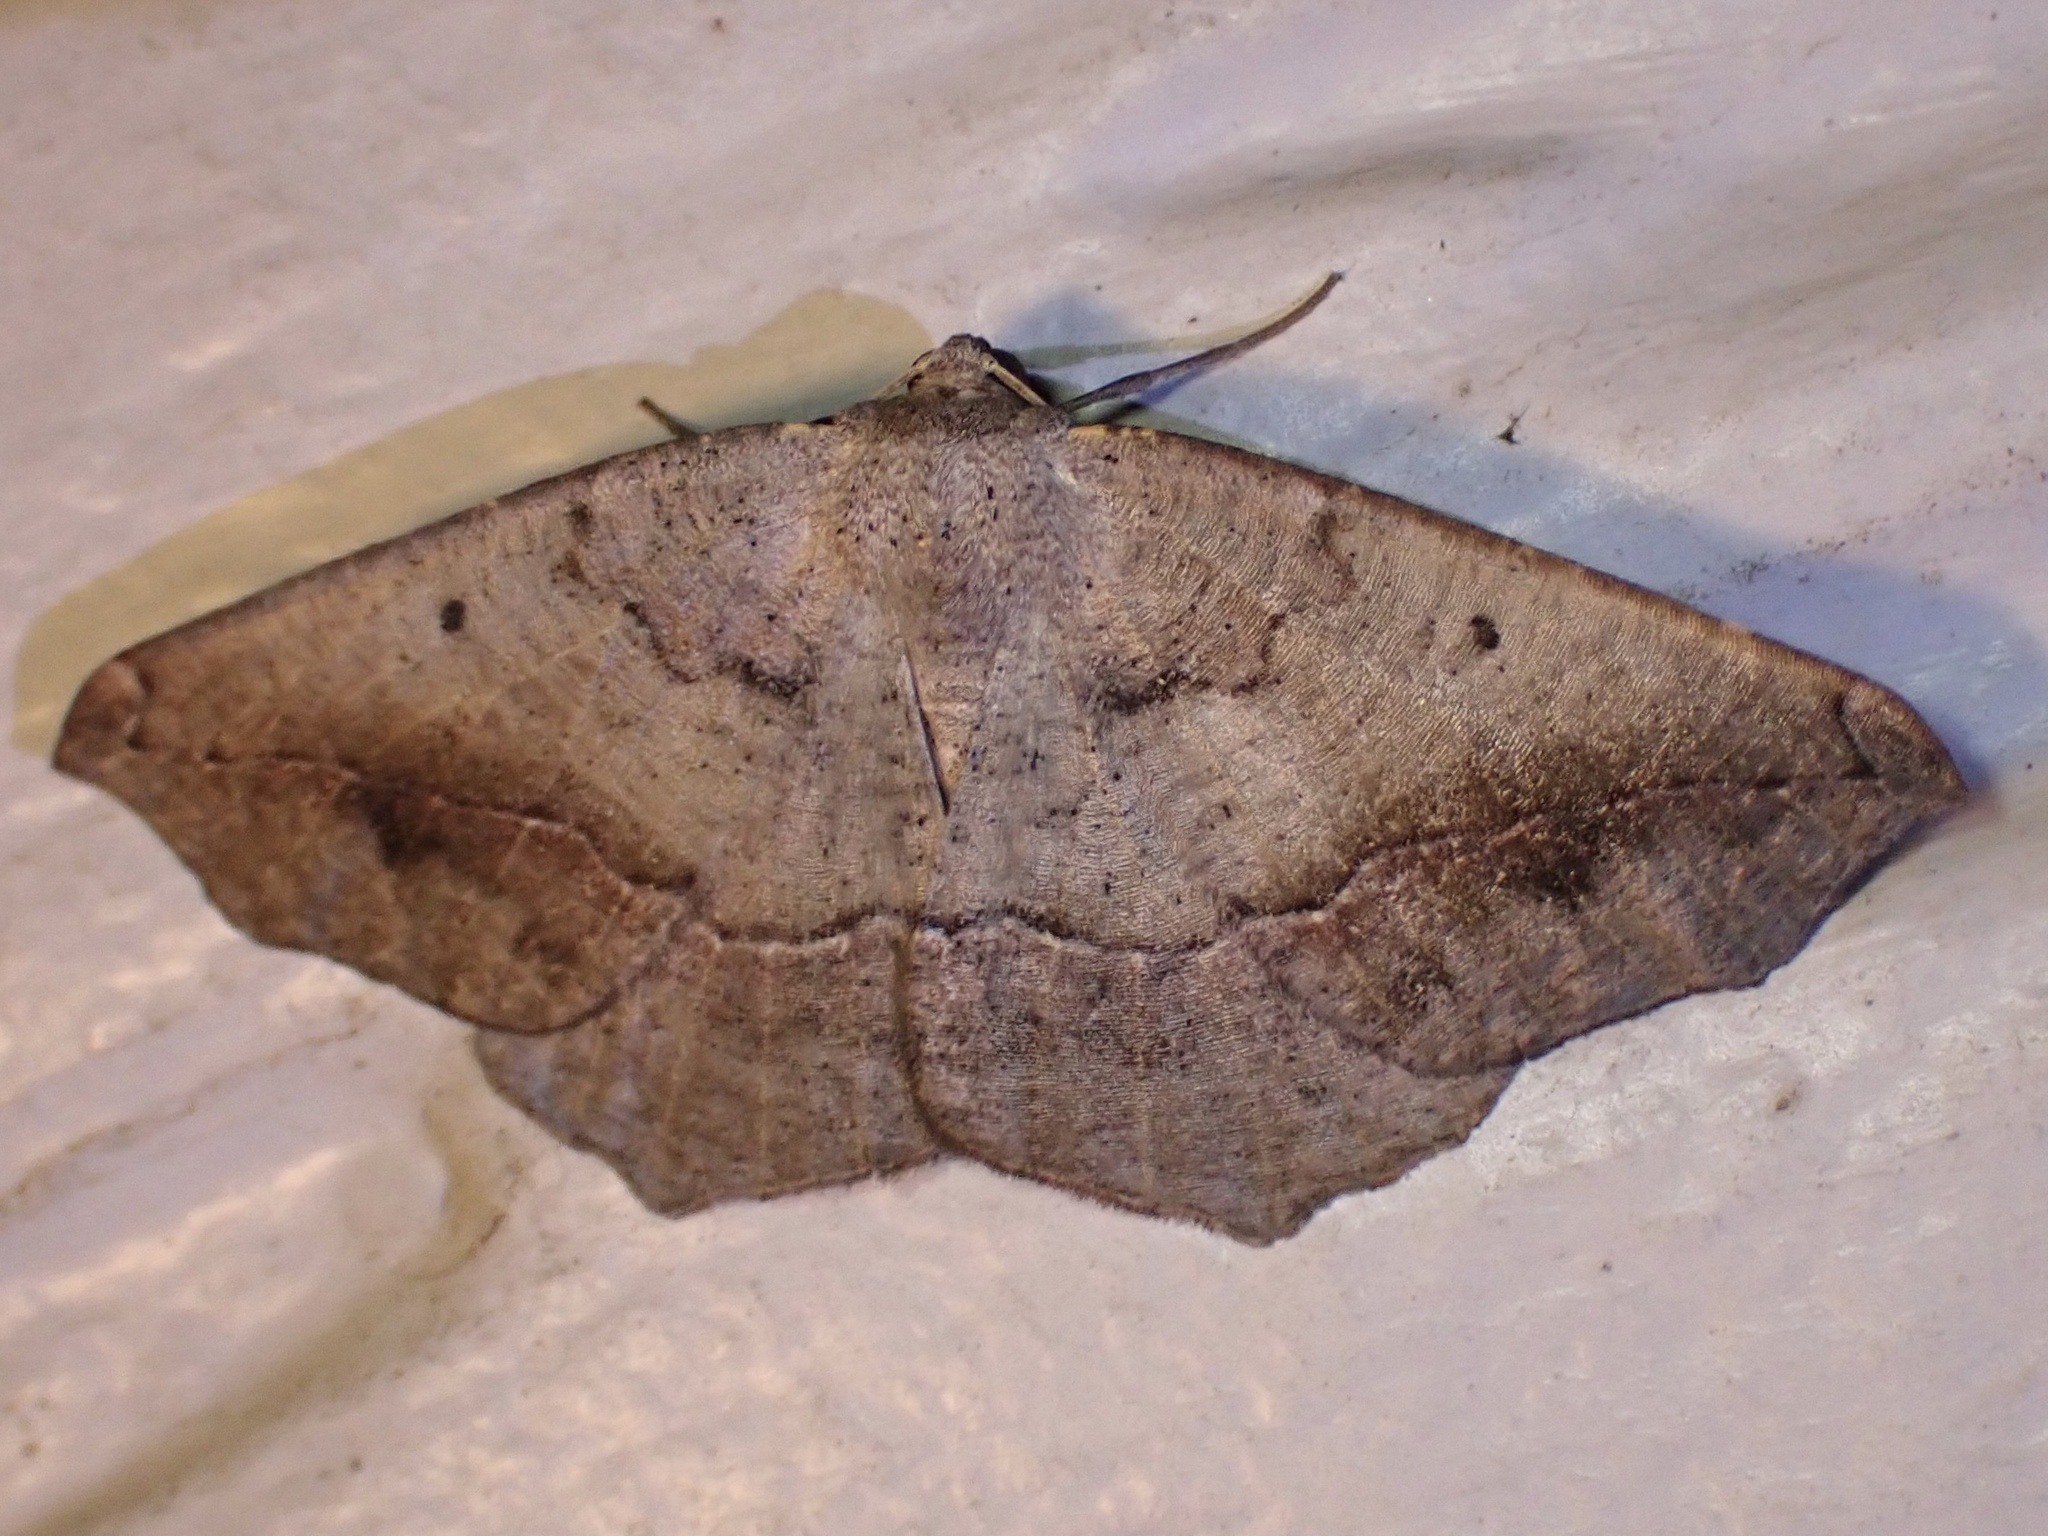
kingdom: Animalia
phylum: Arthropoda
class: Insecta
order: Lepidoptera
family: Geometridae
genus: Prochoerodes
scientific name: Prochoerodes forficaria
